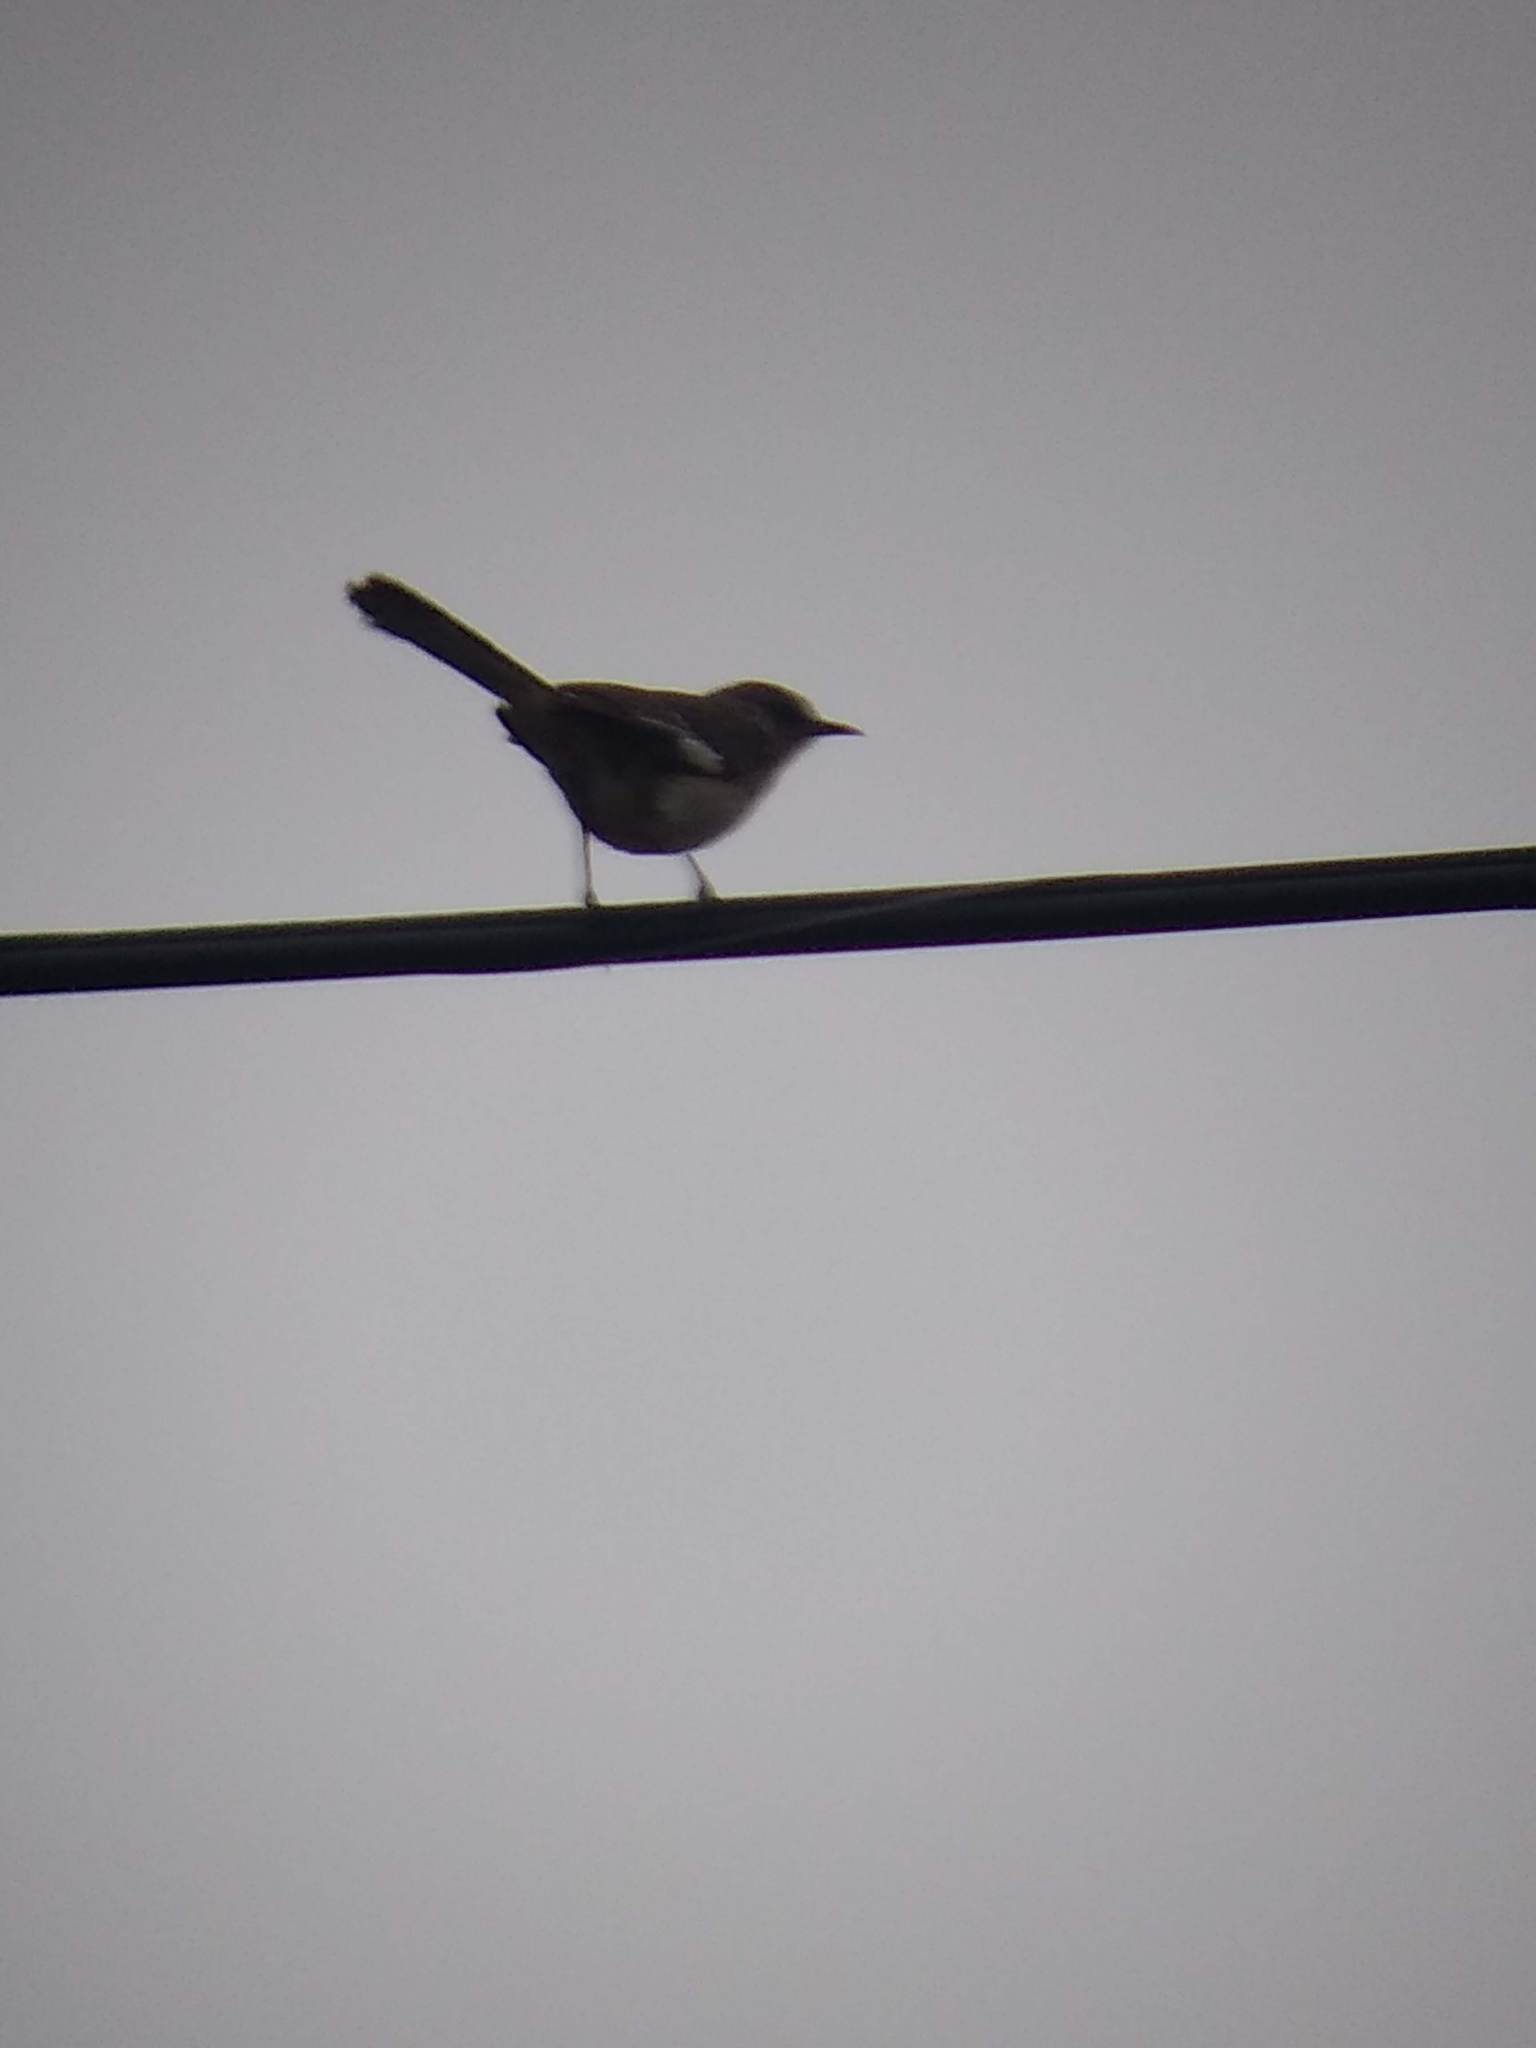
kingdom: Animalia
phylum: Chordata
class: Aves
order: Passeriformes
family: Mimidae
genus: Mimus
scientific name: Mimus polyglottos
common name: Northern mockingbird
